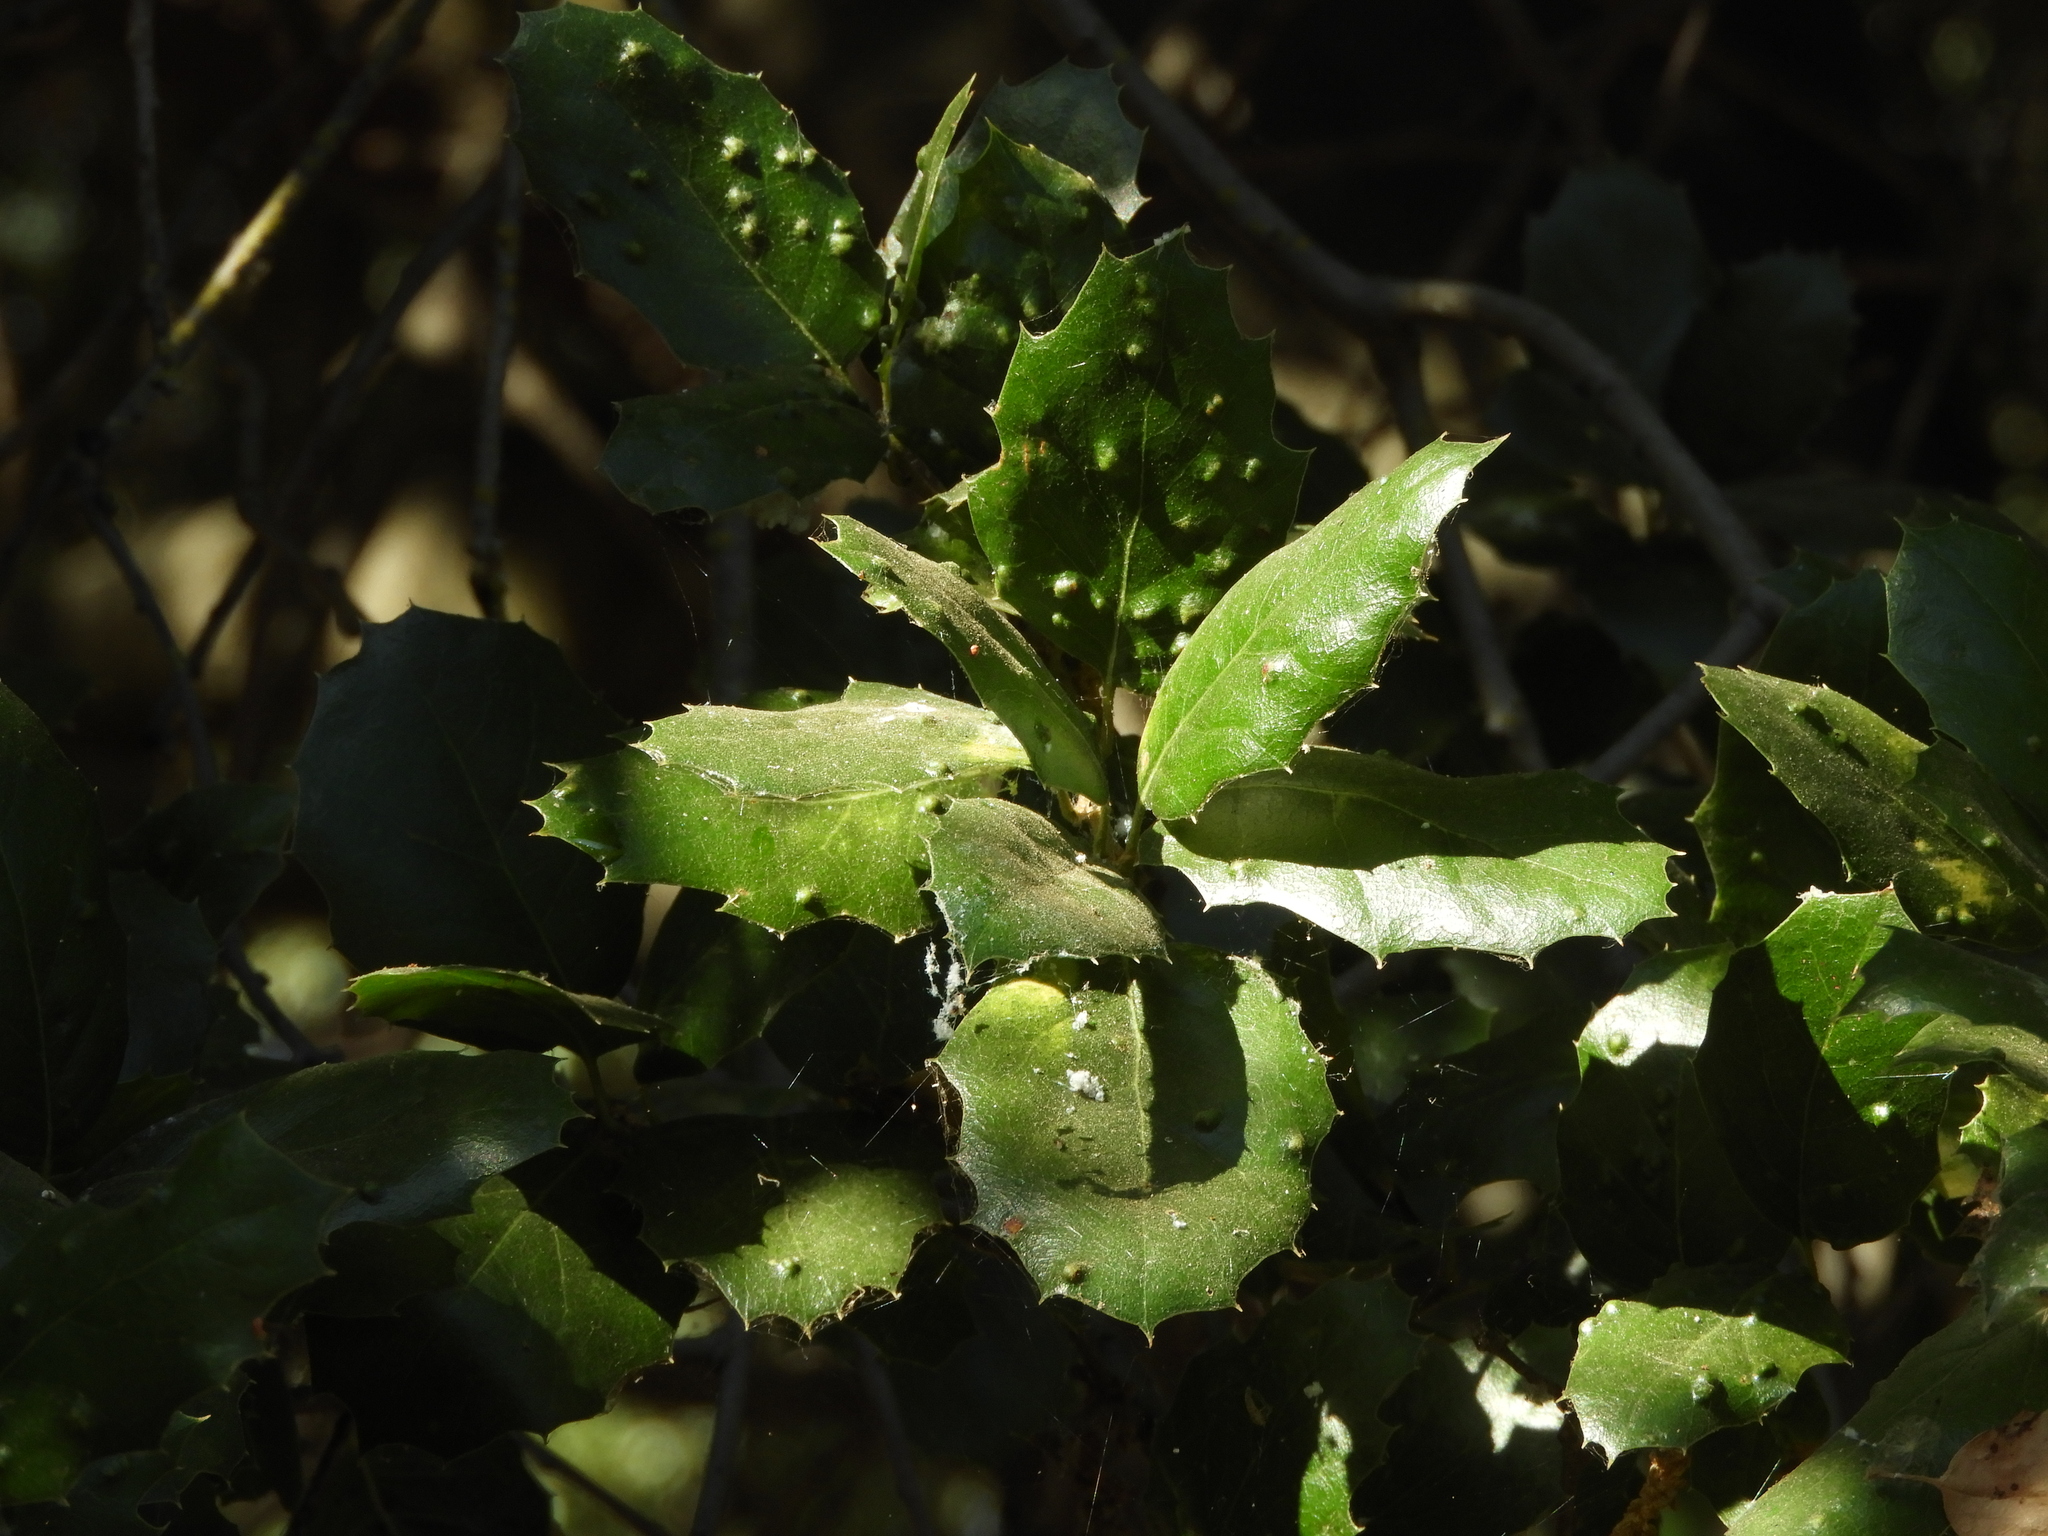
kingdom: Animalia
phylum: Arthropoda
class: Arachnida
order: Trombidiformes
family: Eriophyidae
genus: Aceria
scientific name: Aceria
